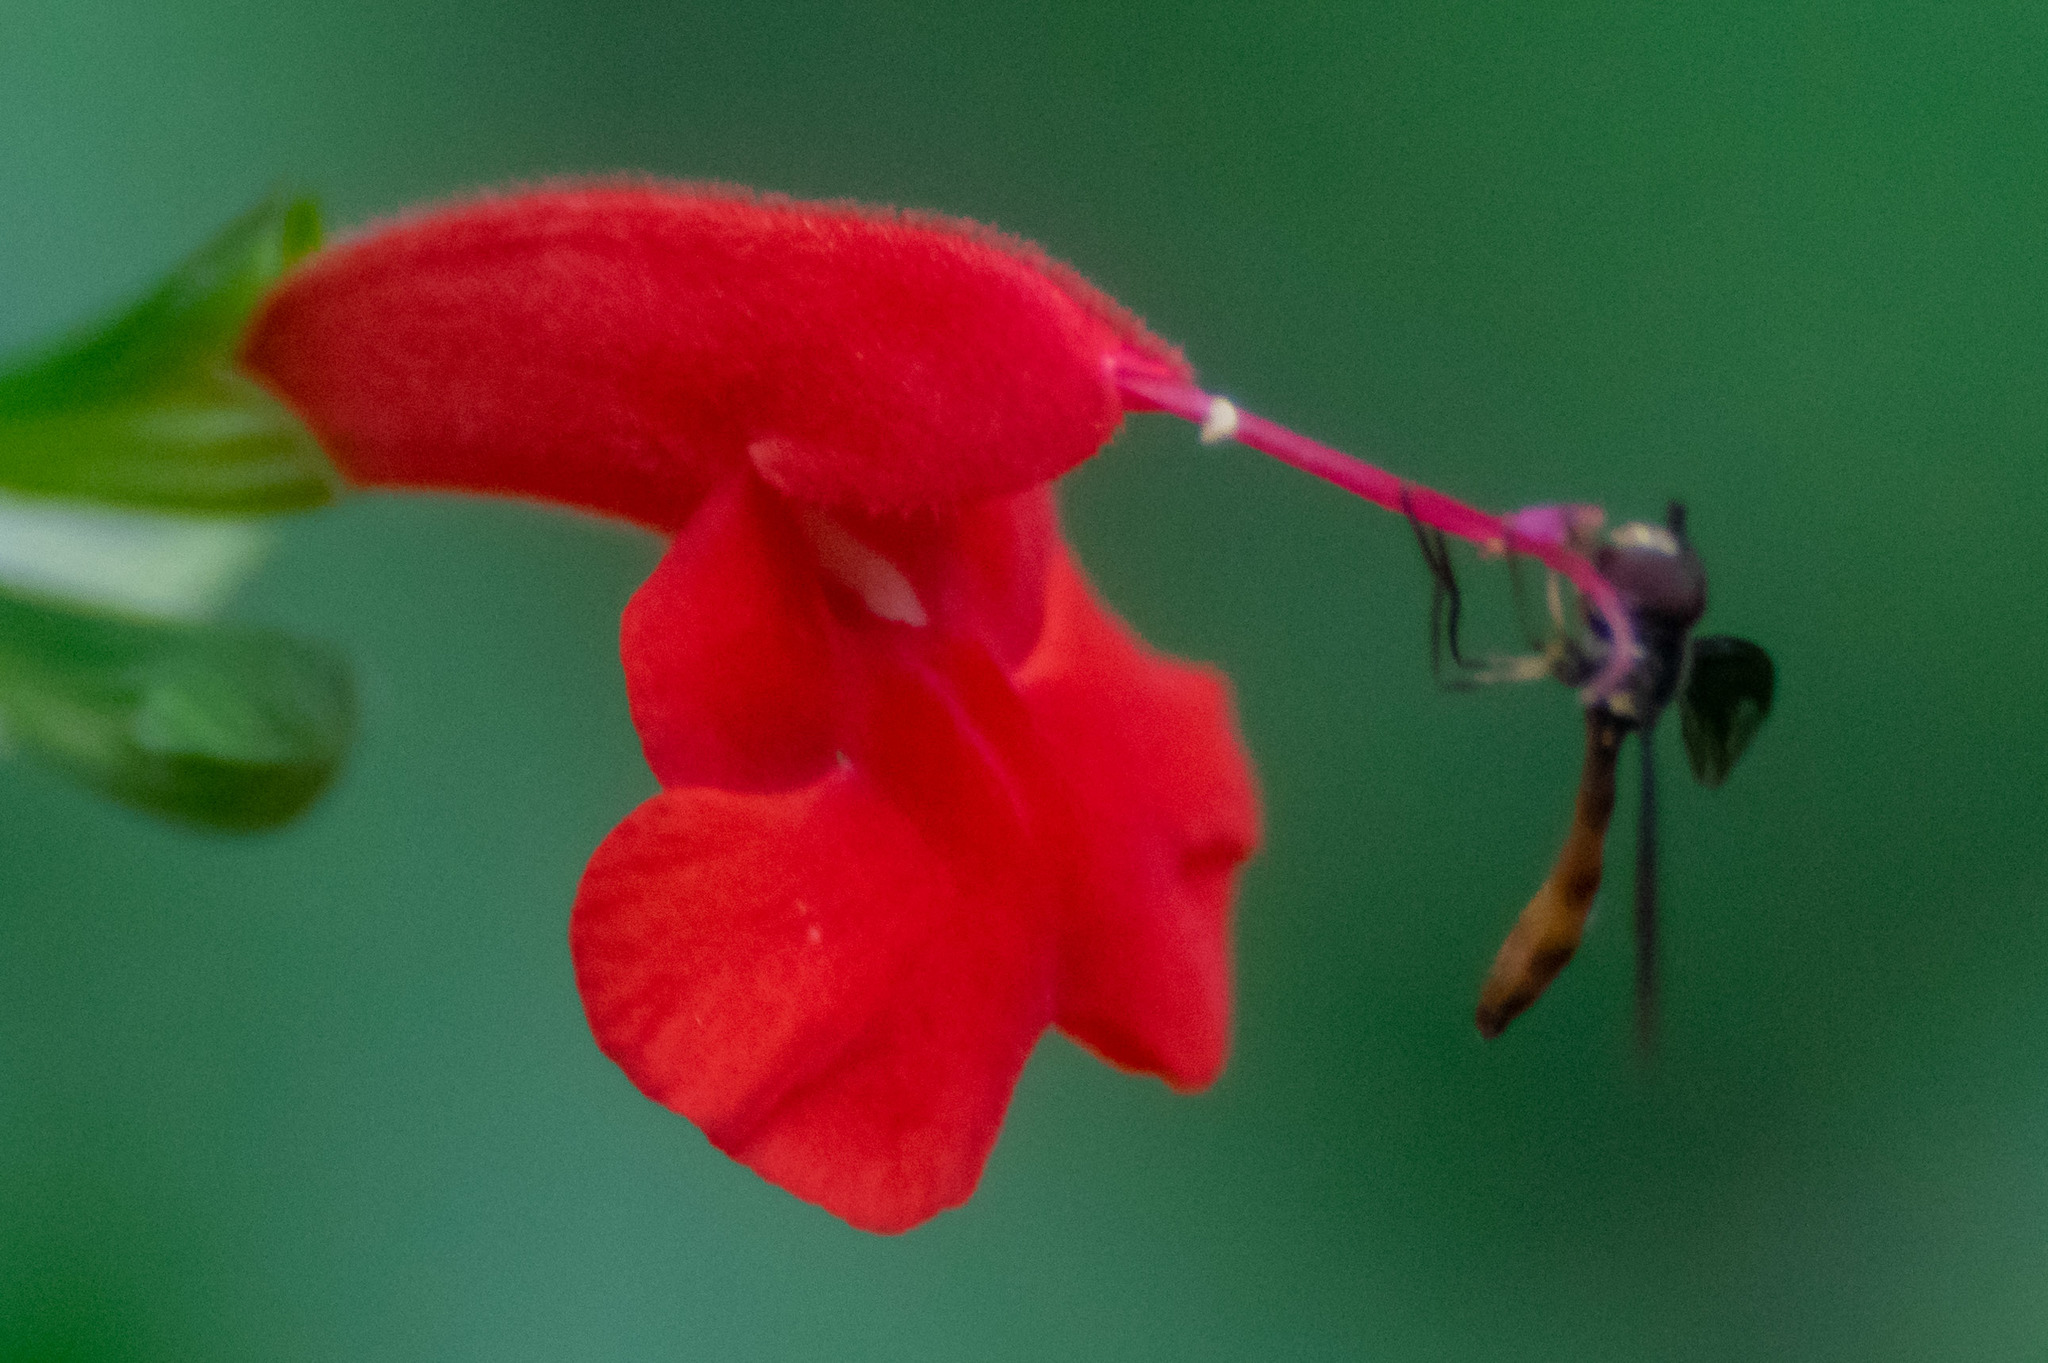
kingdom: Animalia
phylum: Arthropoda
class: Insecta
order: Diptera
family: Syrphidae
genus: Ocyptamus
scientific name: Ocyptamus fuscipennis
